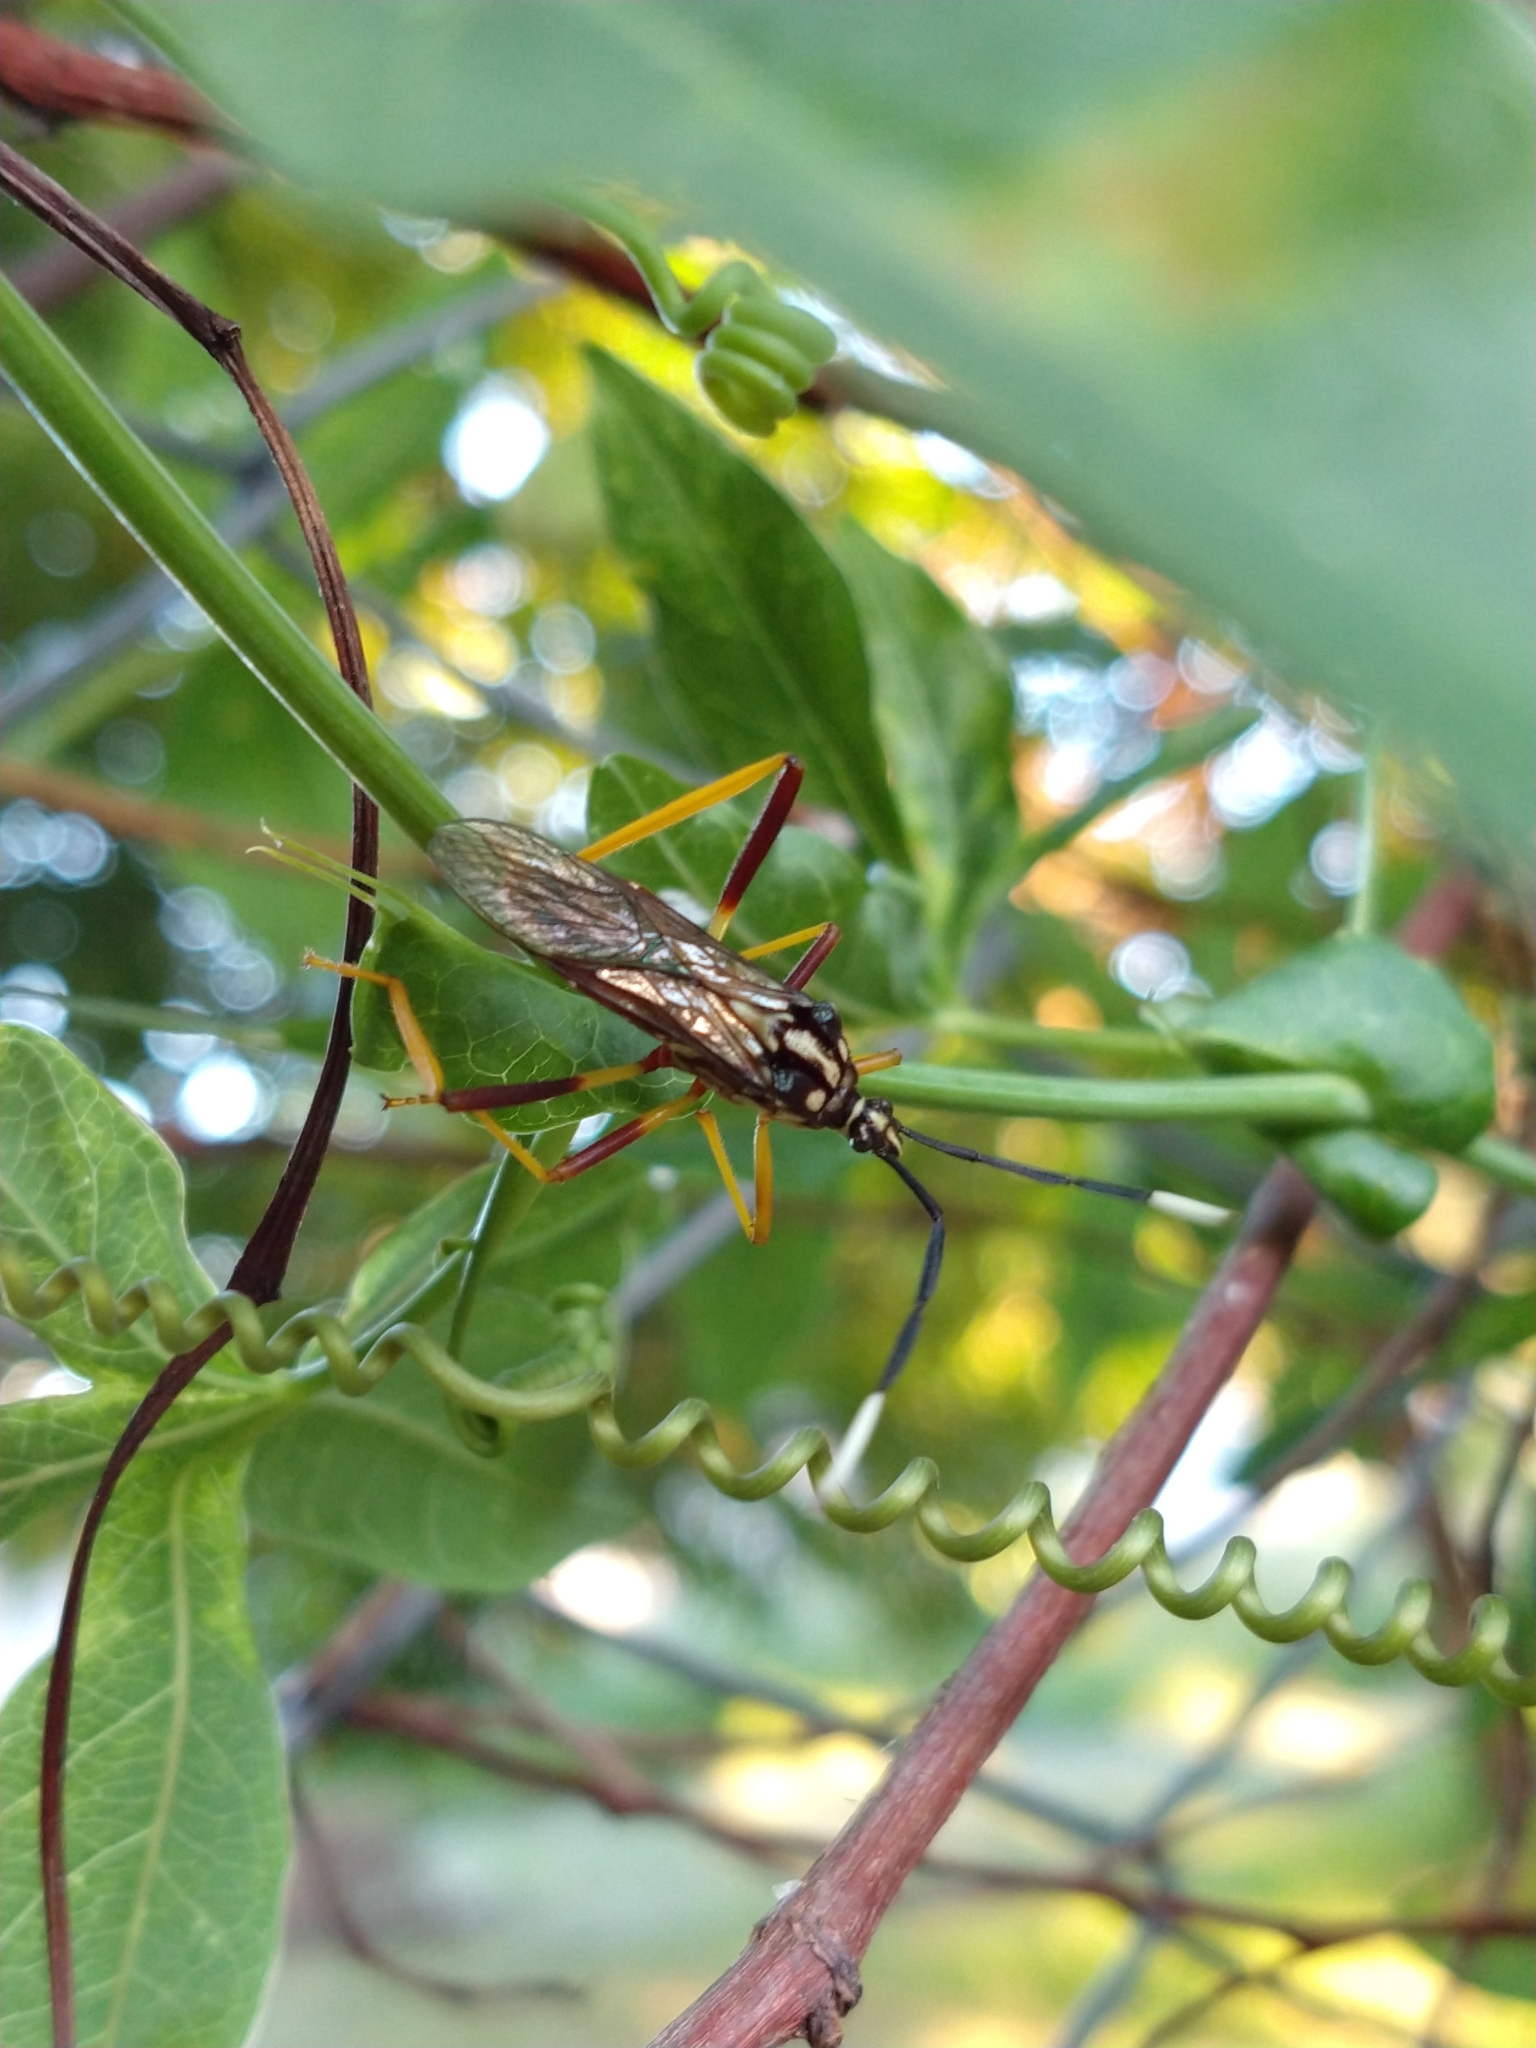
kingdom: Animalia
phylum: Arthropoda
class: Insecta
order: Hemiptera
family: Coreidae
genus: Holhymenia
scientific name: Holhymenia histrio
